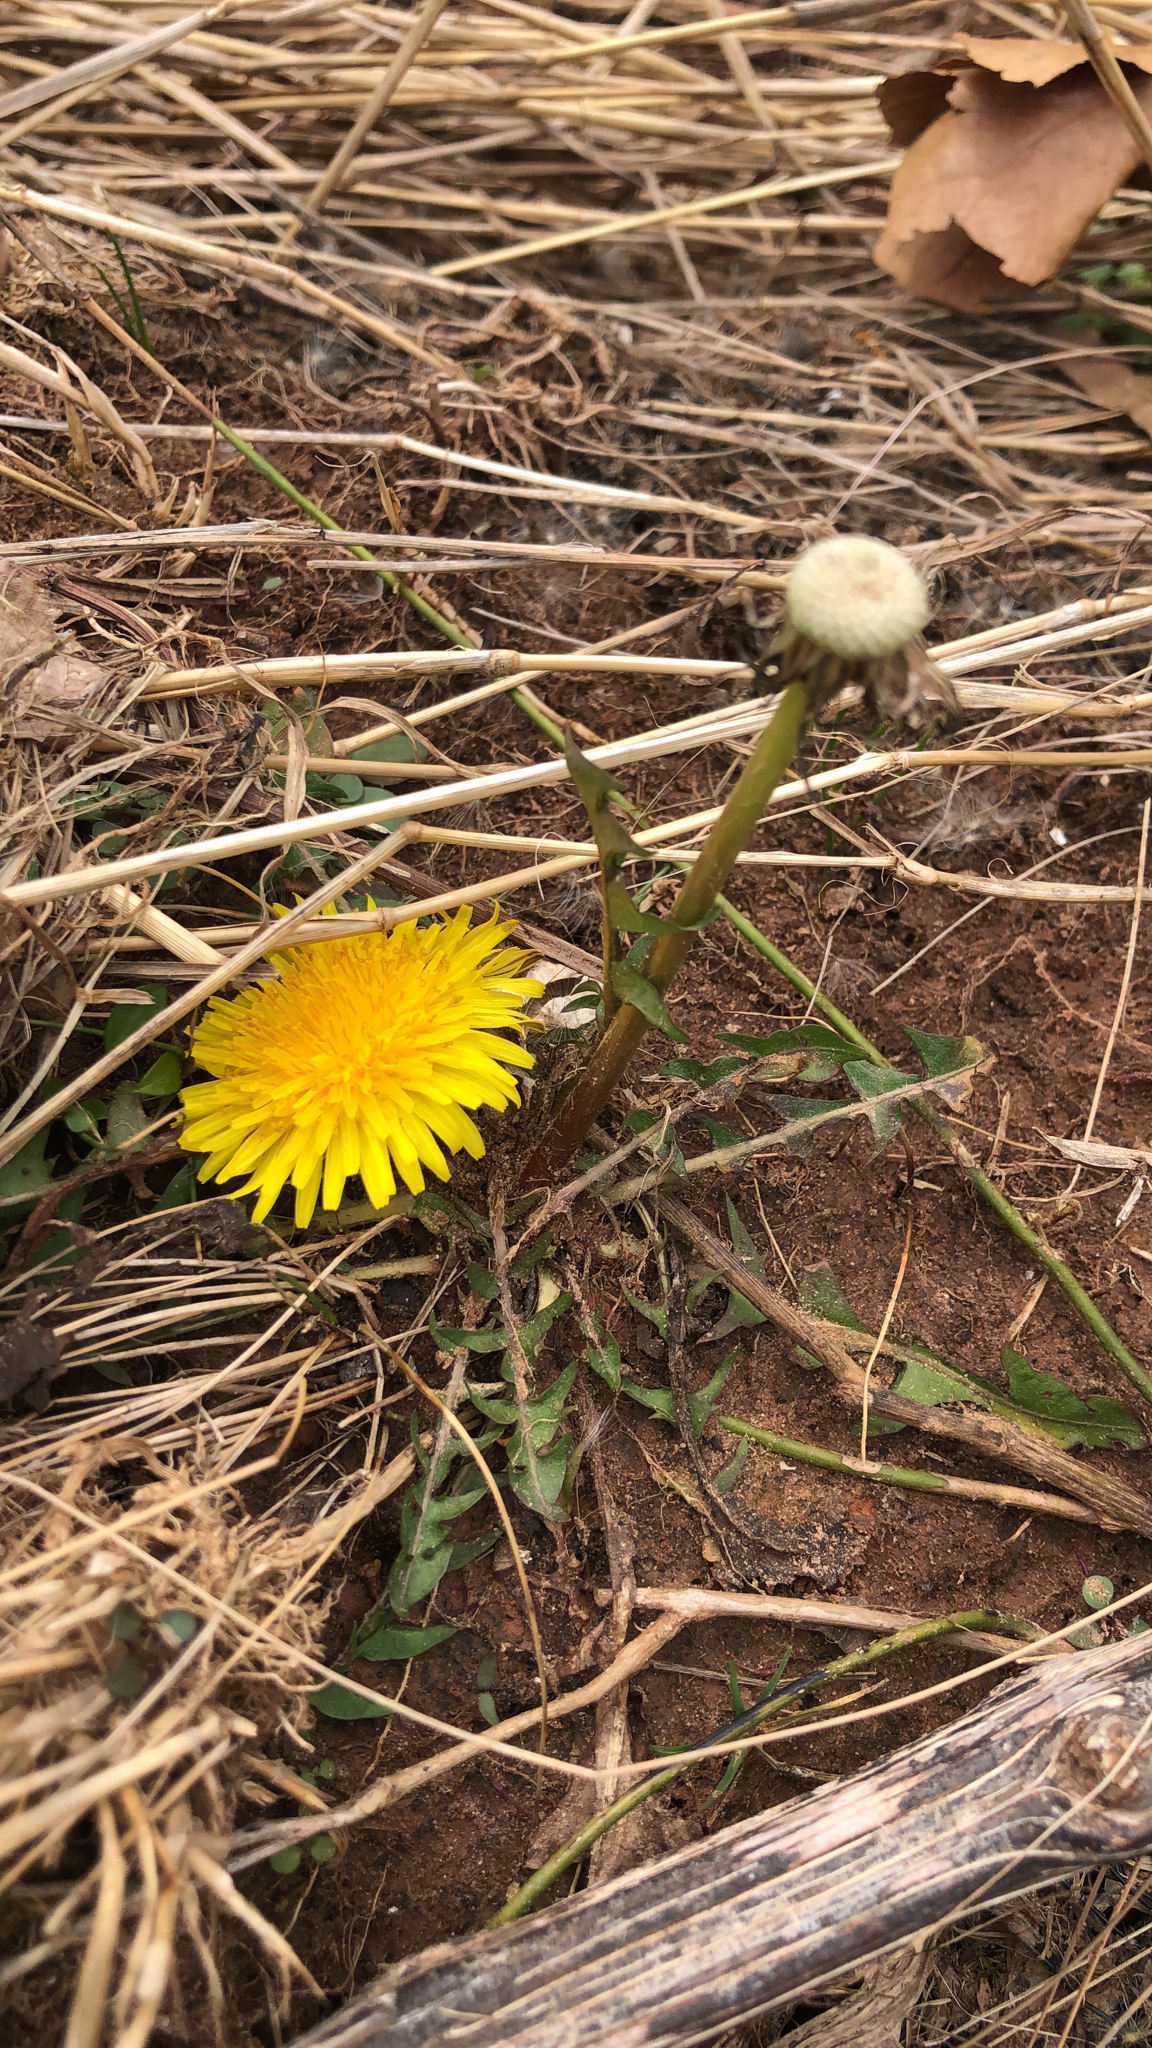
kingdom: Plantae
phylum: Tracheophyta
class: Magnoliopsida
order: Asterales
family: Asteraceae
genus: Taraxacum
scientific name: Taraxacum officinale
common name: Common dandelion
